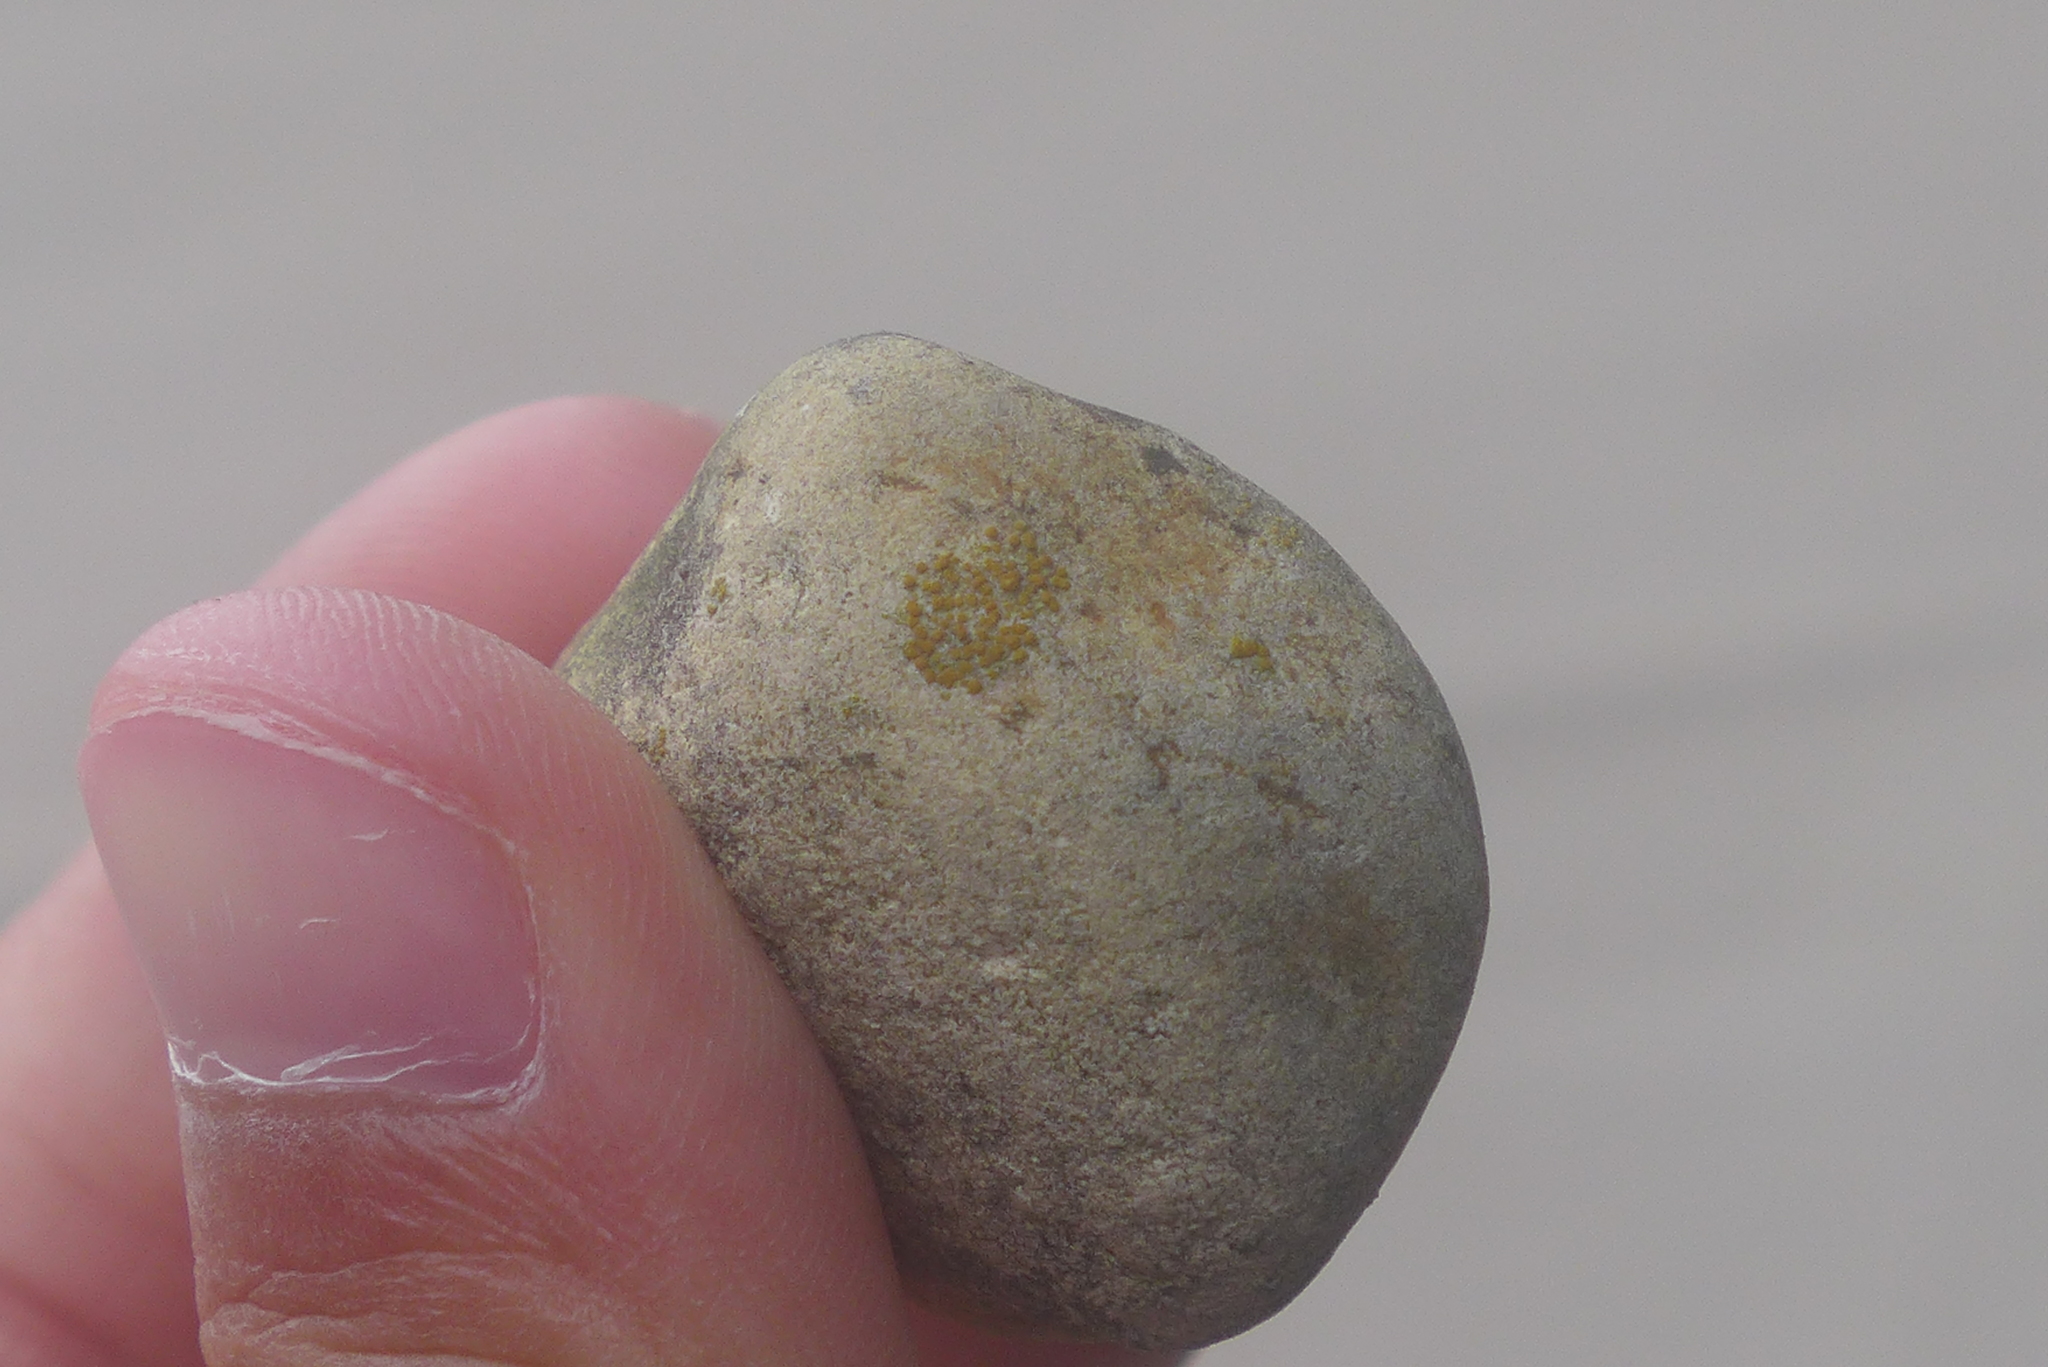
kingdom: Fungi
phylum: Ascomycota
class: Lecanoromycetes
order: Teloschistales
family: Teloschistaceae
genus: Xanthocarpia
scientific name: Xanthocarpia feracissima
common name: Sidewalk firedot
